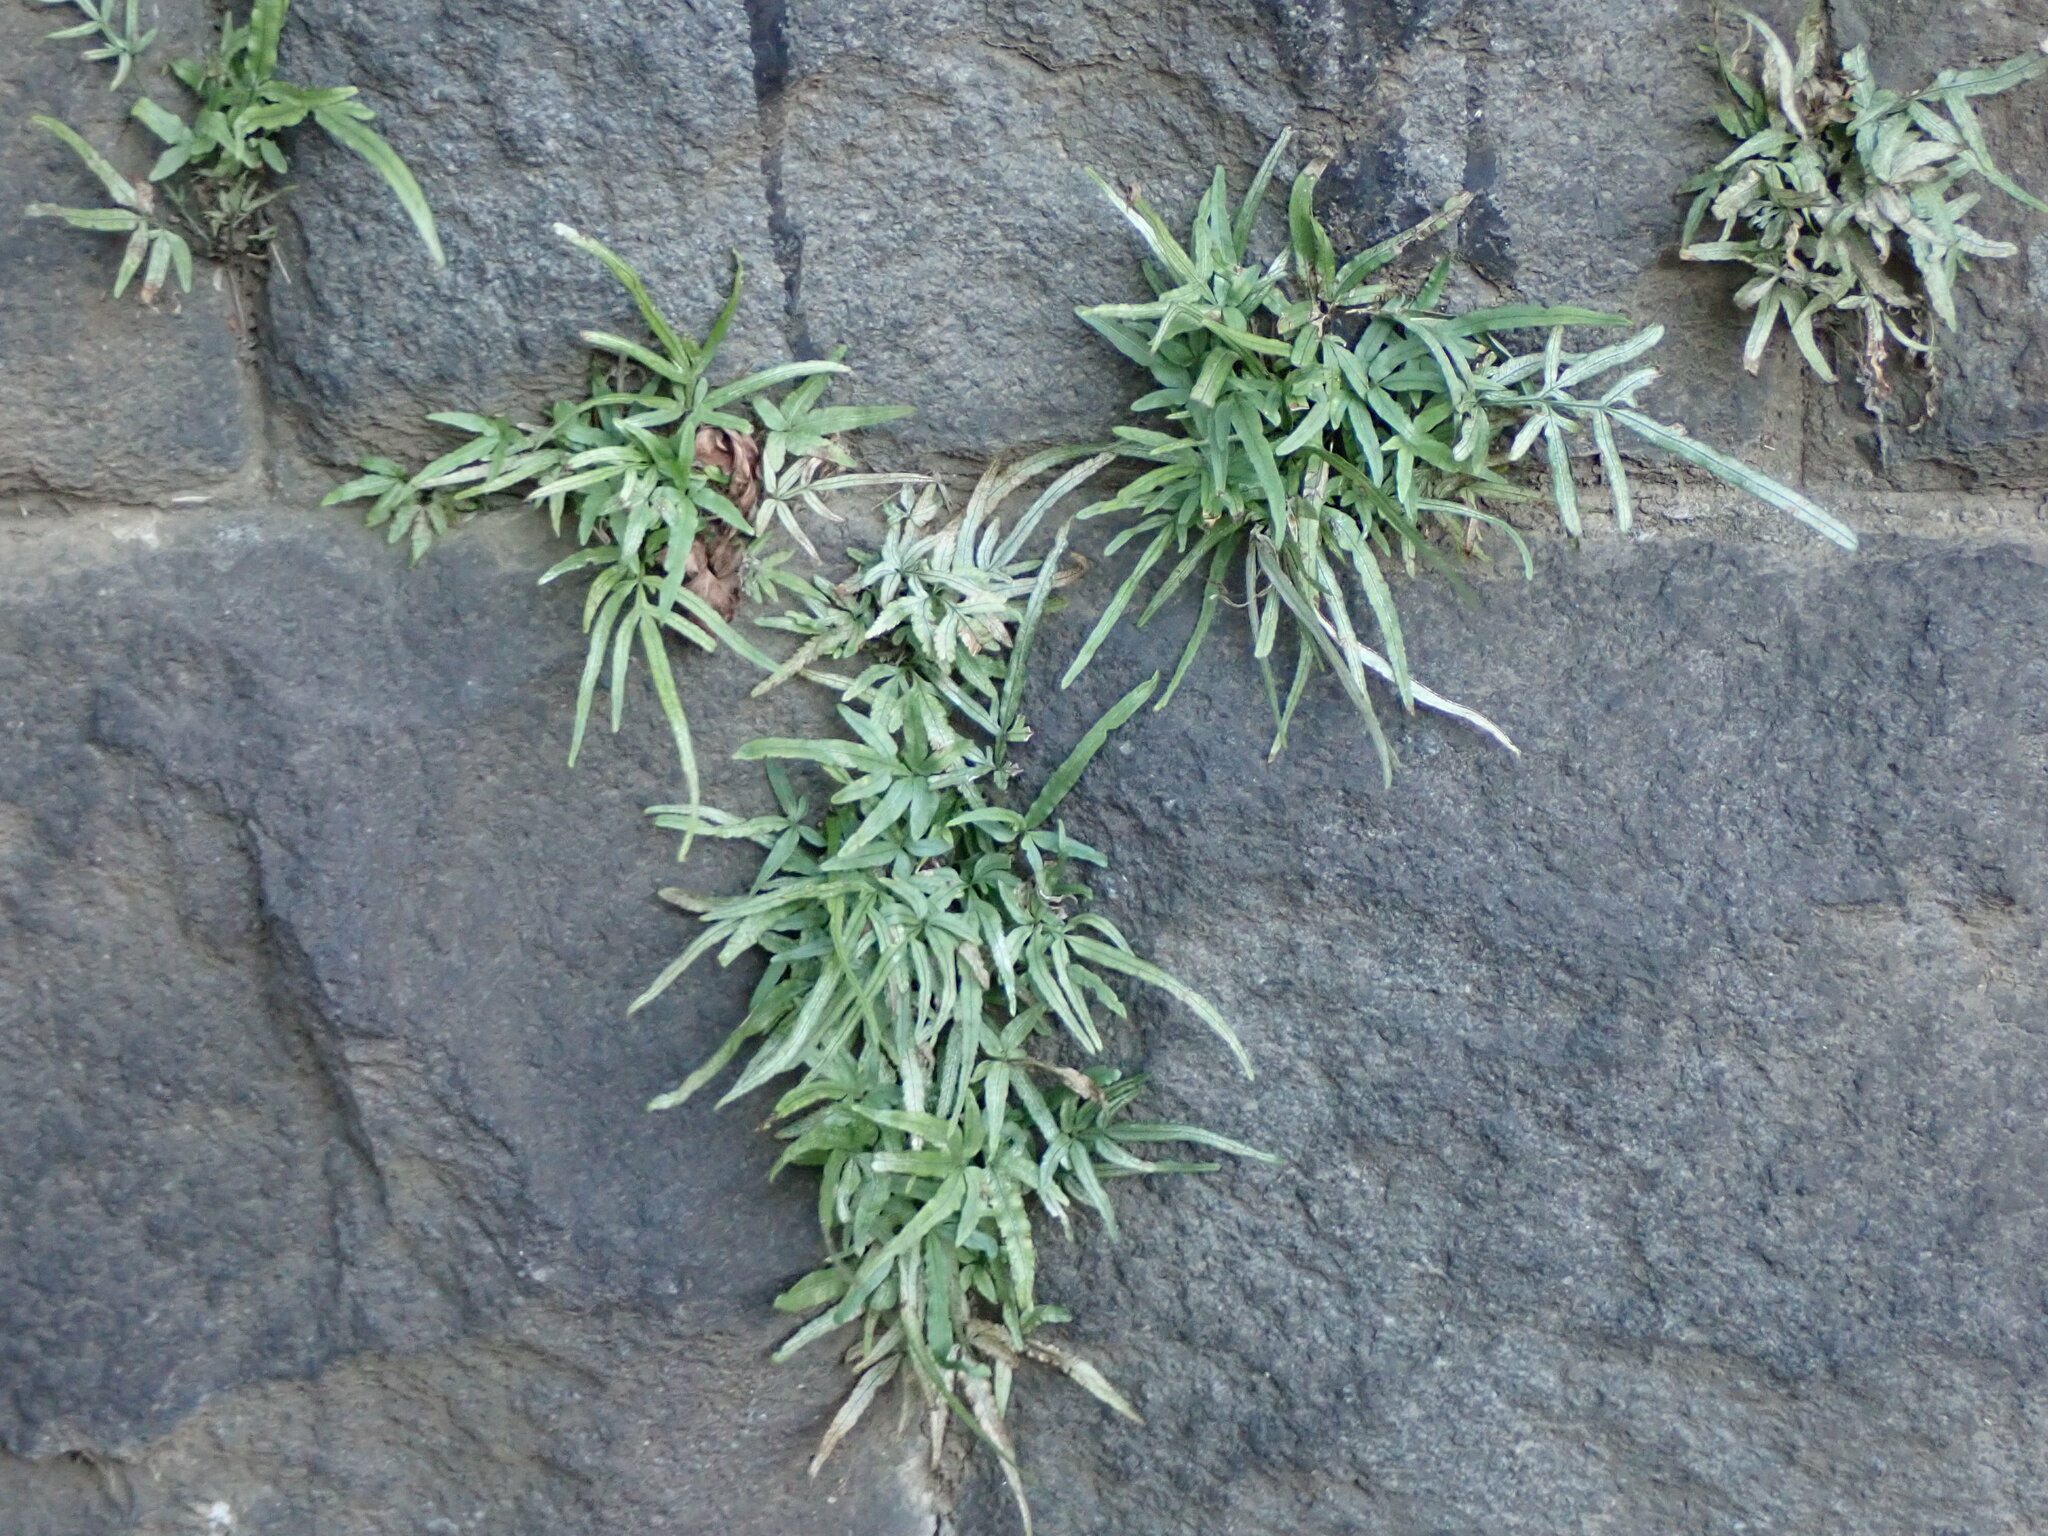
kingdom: Plantae
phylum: Tracheophyta
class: Polypodiopsida
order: Polypodiales
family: Pteridaceae
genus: Pteris
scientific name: Pteris multifida
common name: Spider brake
